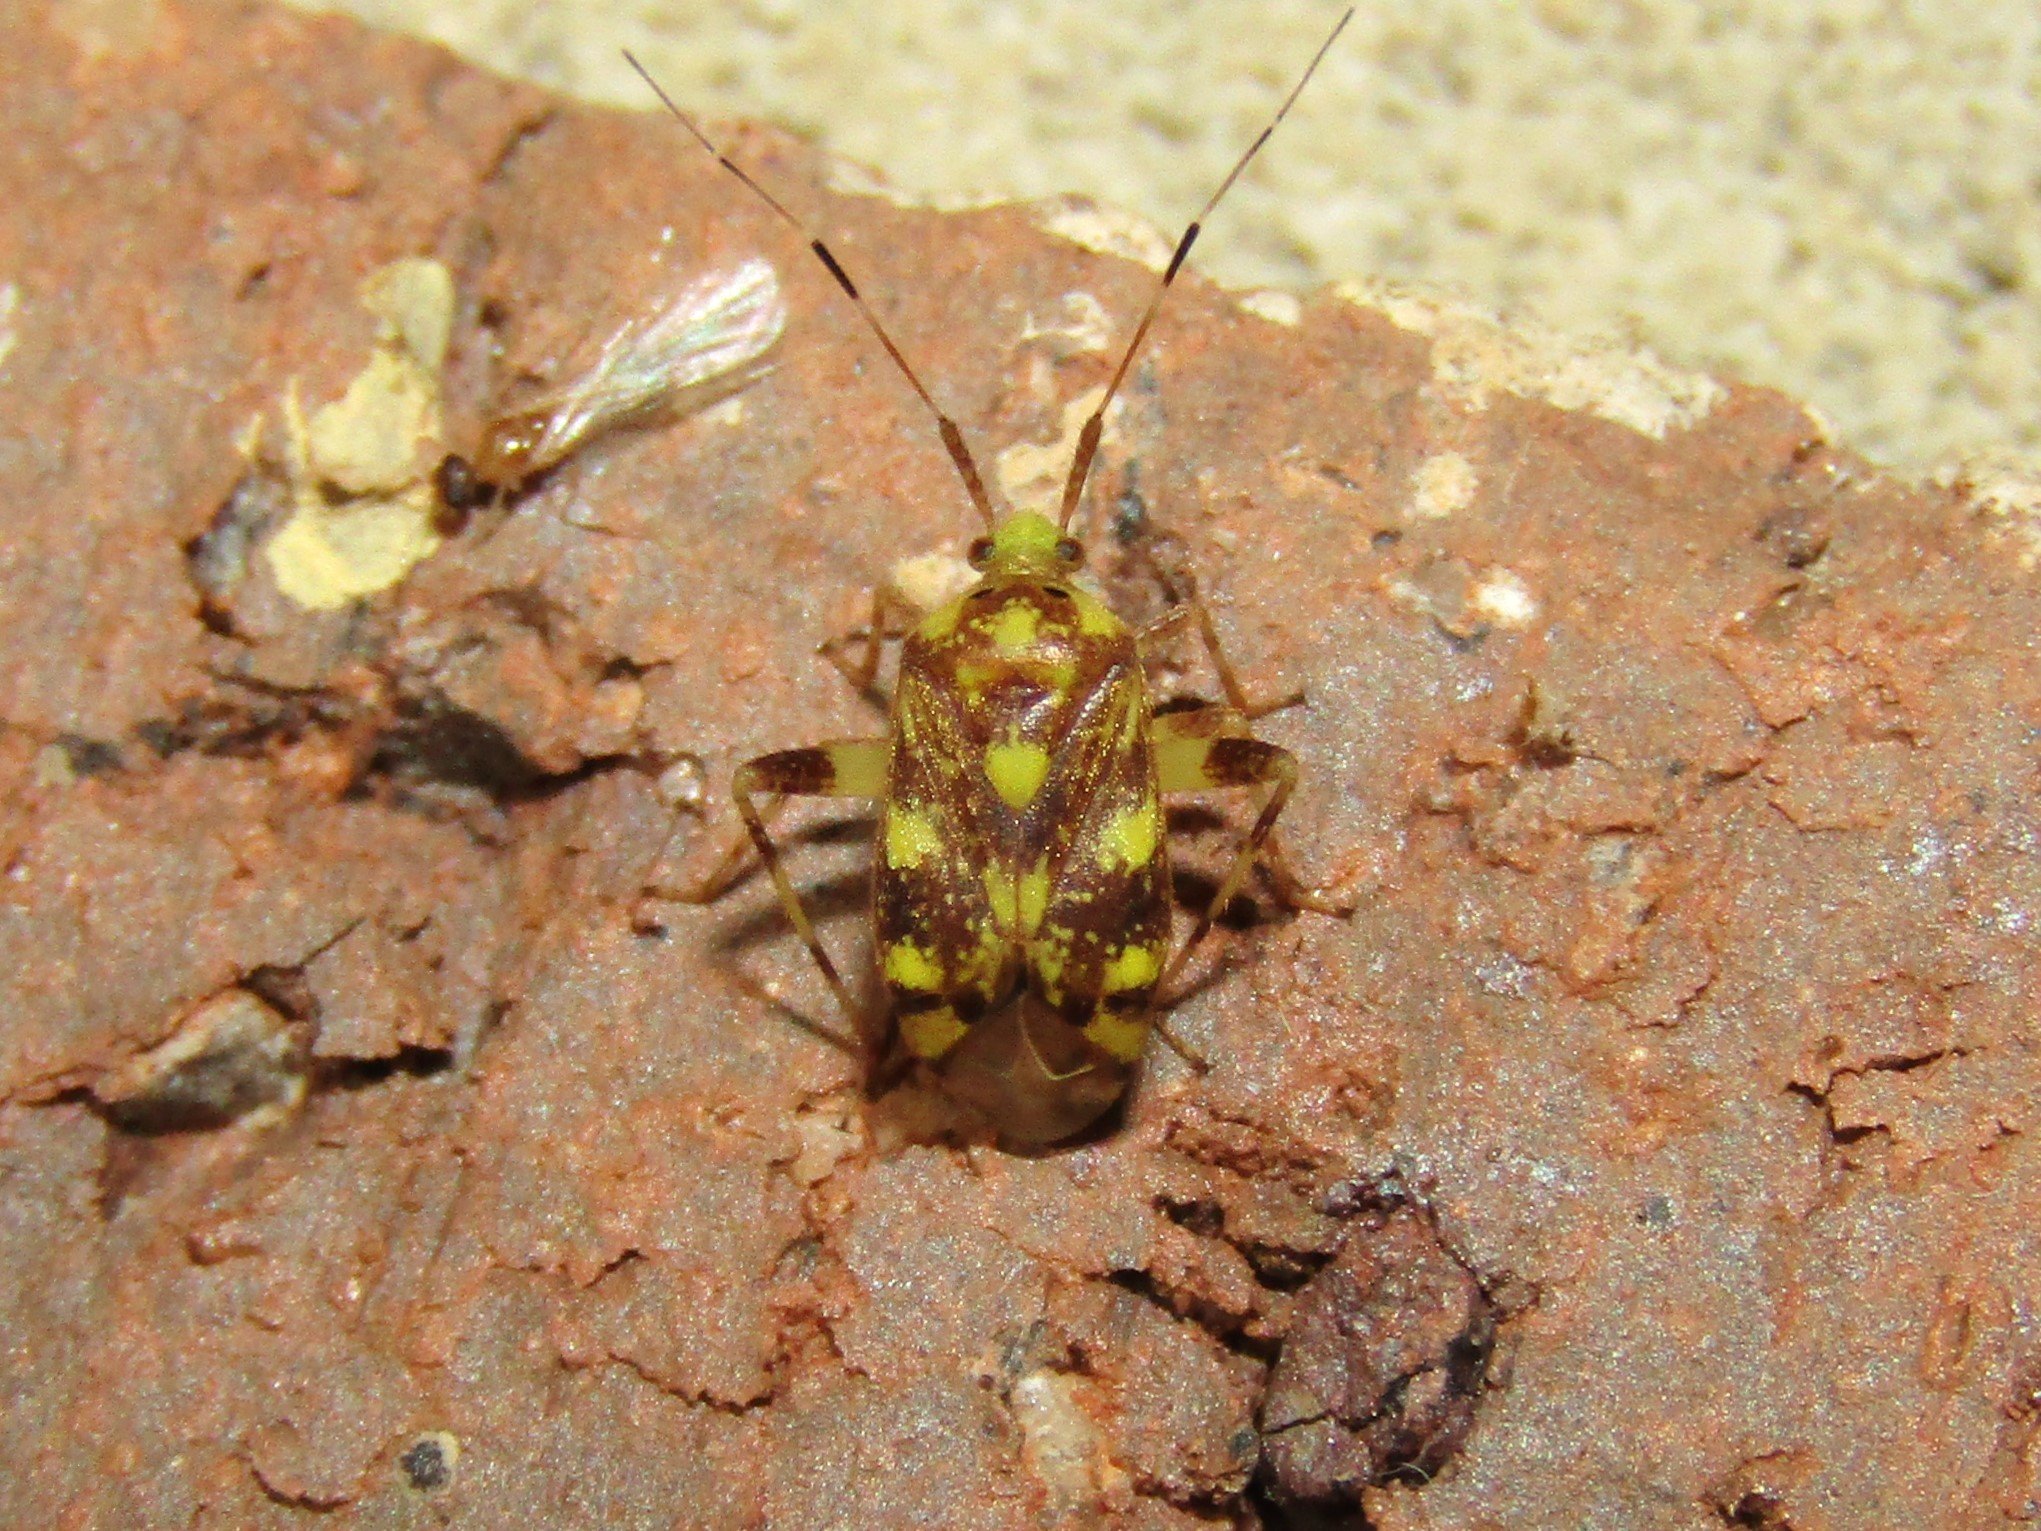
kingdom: Animalia
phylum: Arthropoda
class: Insecta
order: Hemiptera
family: Miridae
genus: Taedia
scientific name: Taedia multisignata
